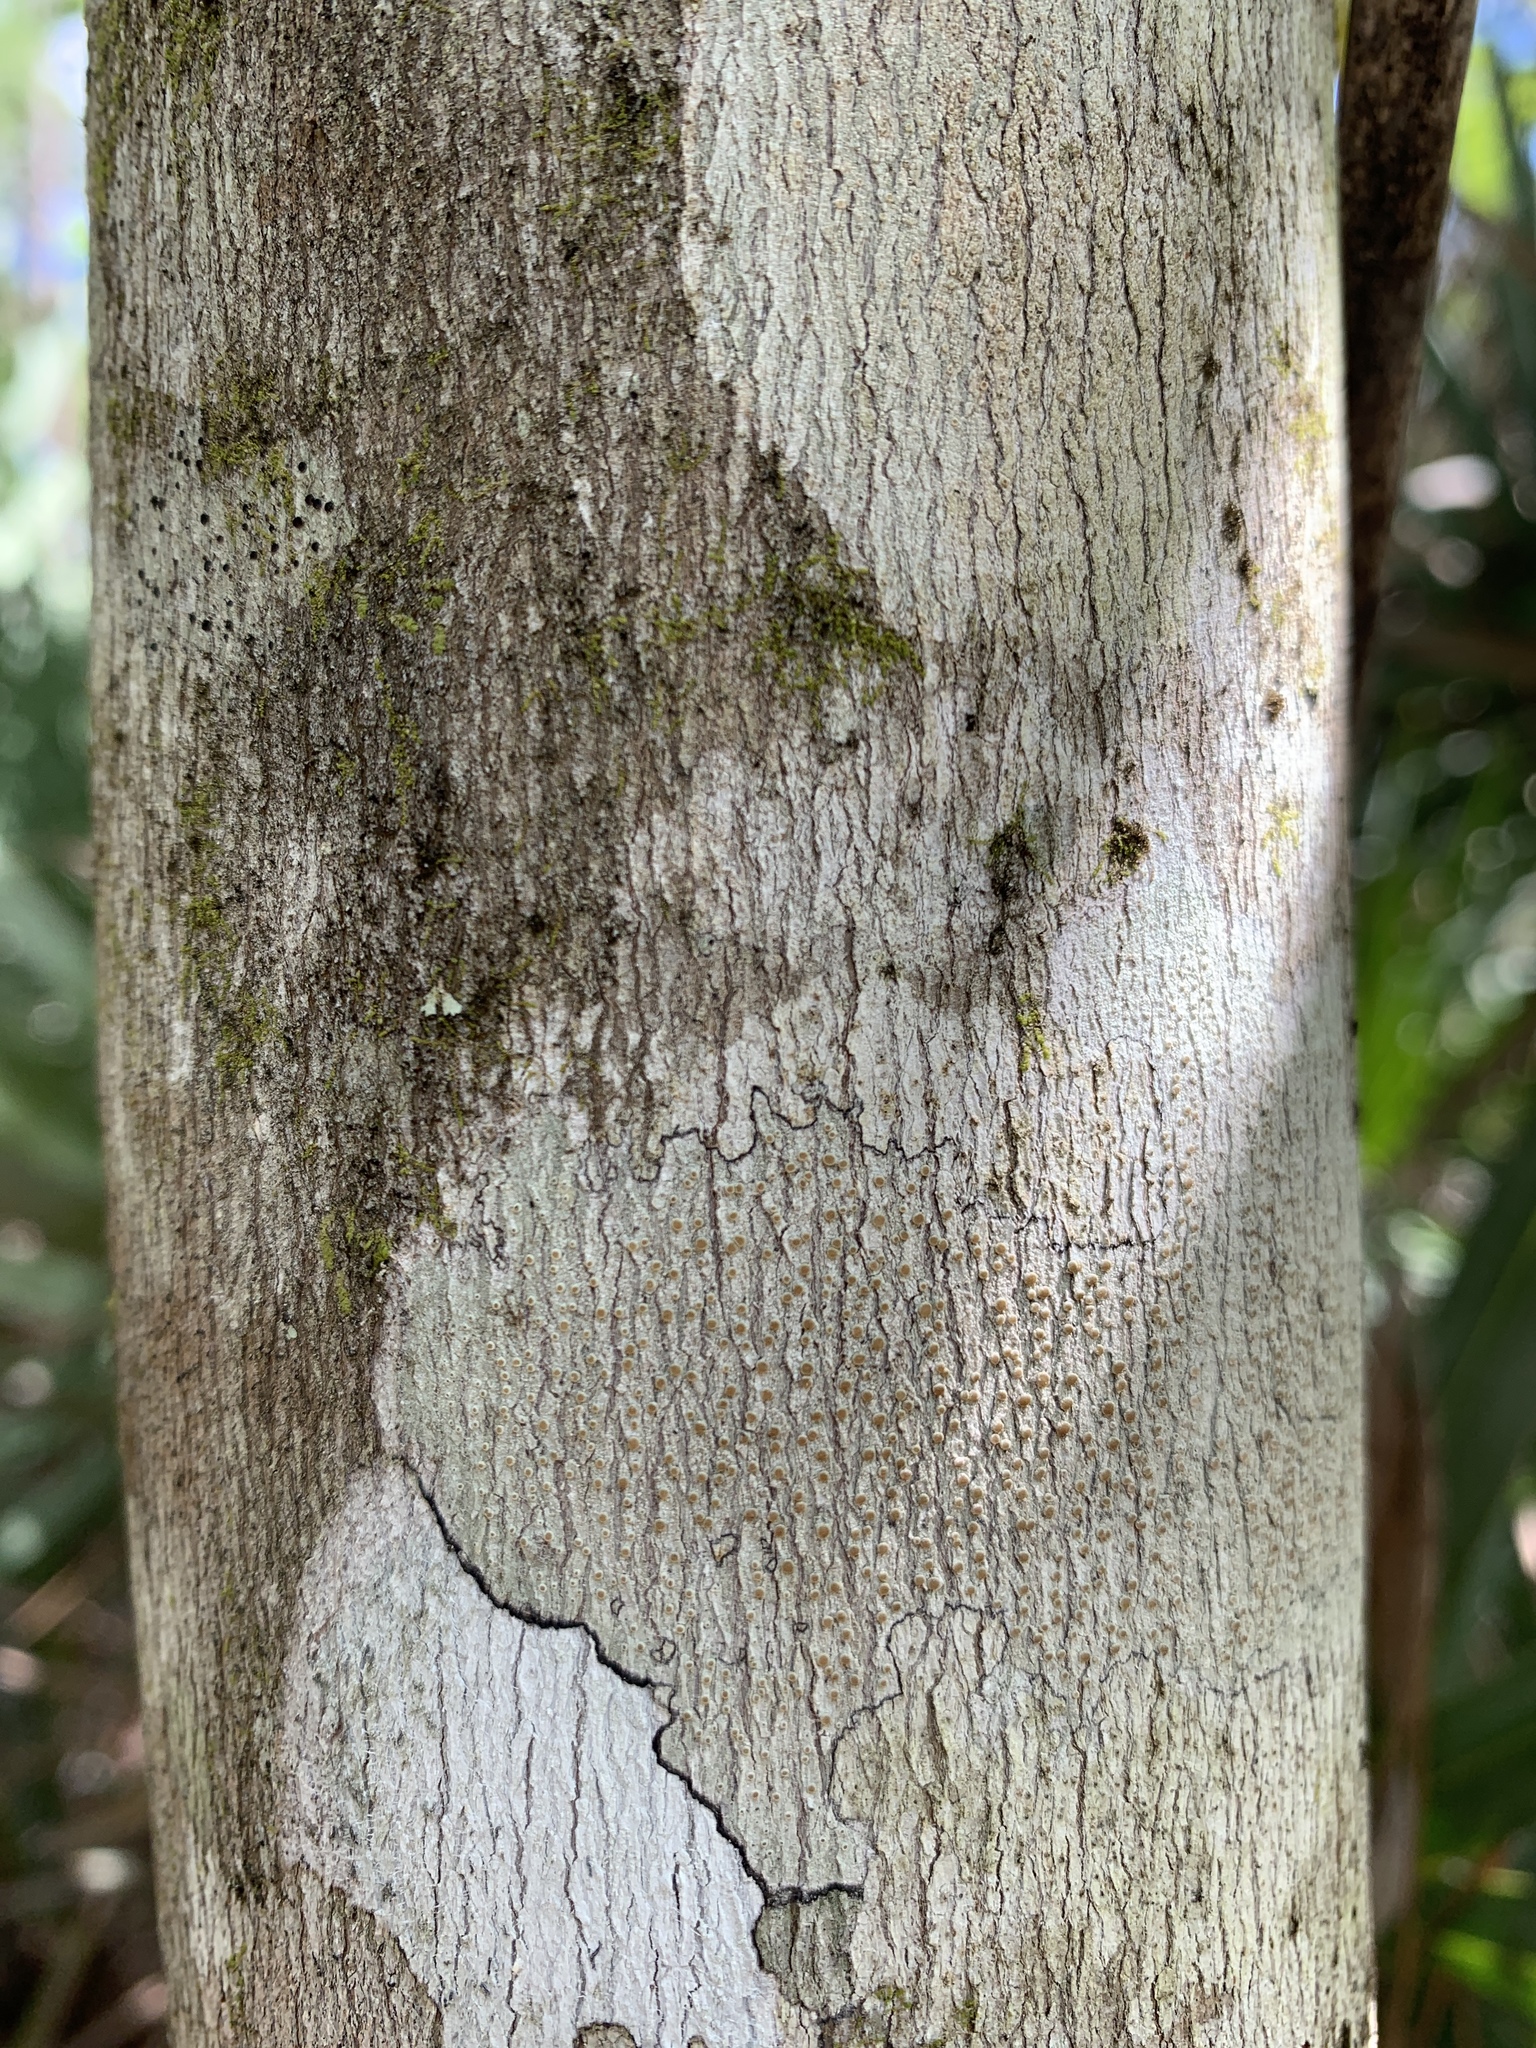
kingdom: Plantae
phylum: Tracheophyta
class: Magnoliopsida
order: Sapindales
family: Sapindaceae
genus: Acer
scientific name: Acer rubrum
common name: Red maple
